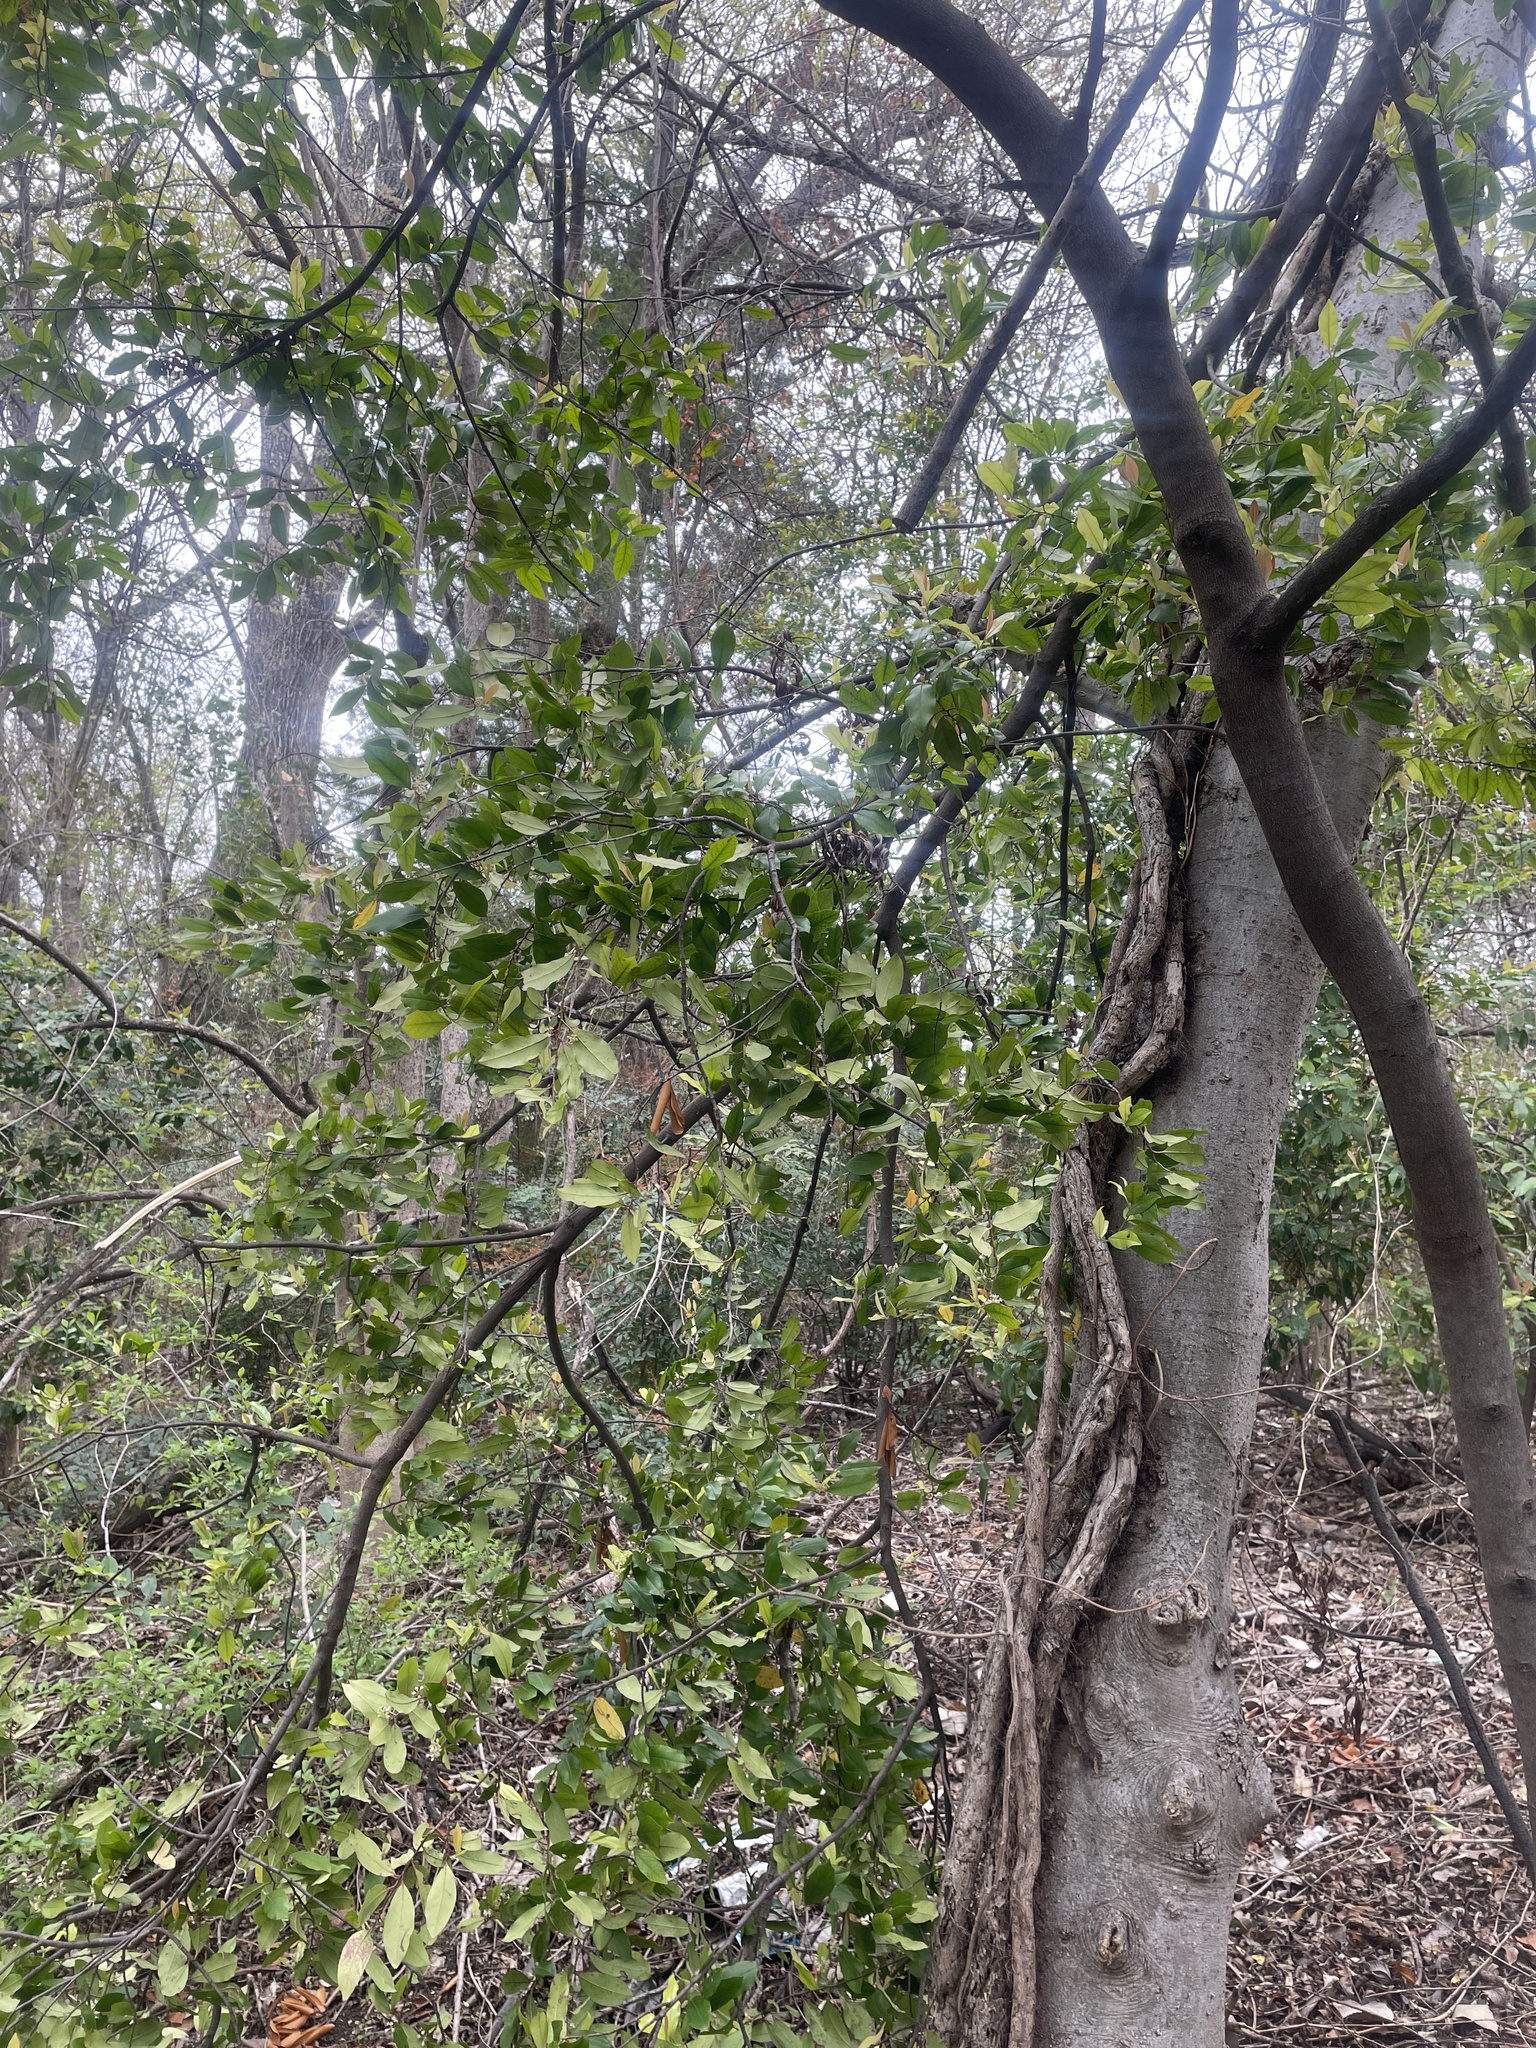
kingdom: Plantae
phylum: Tracheophyta
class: Magnoliopsida
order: Rosales
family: Rosaceae
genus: Prunus
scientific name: Prunus caroliniana
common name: Carolina laurel cherry
